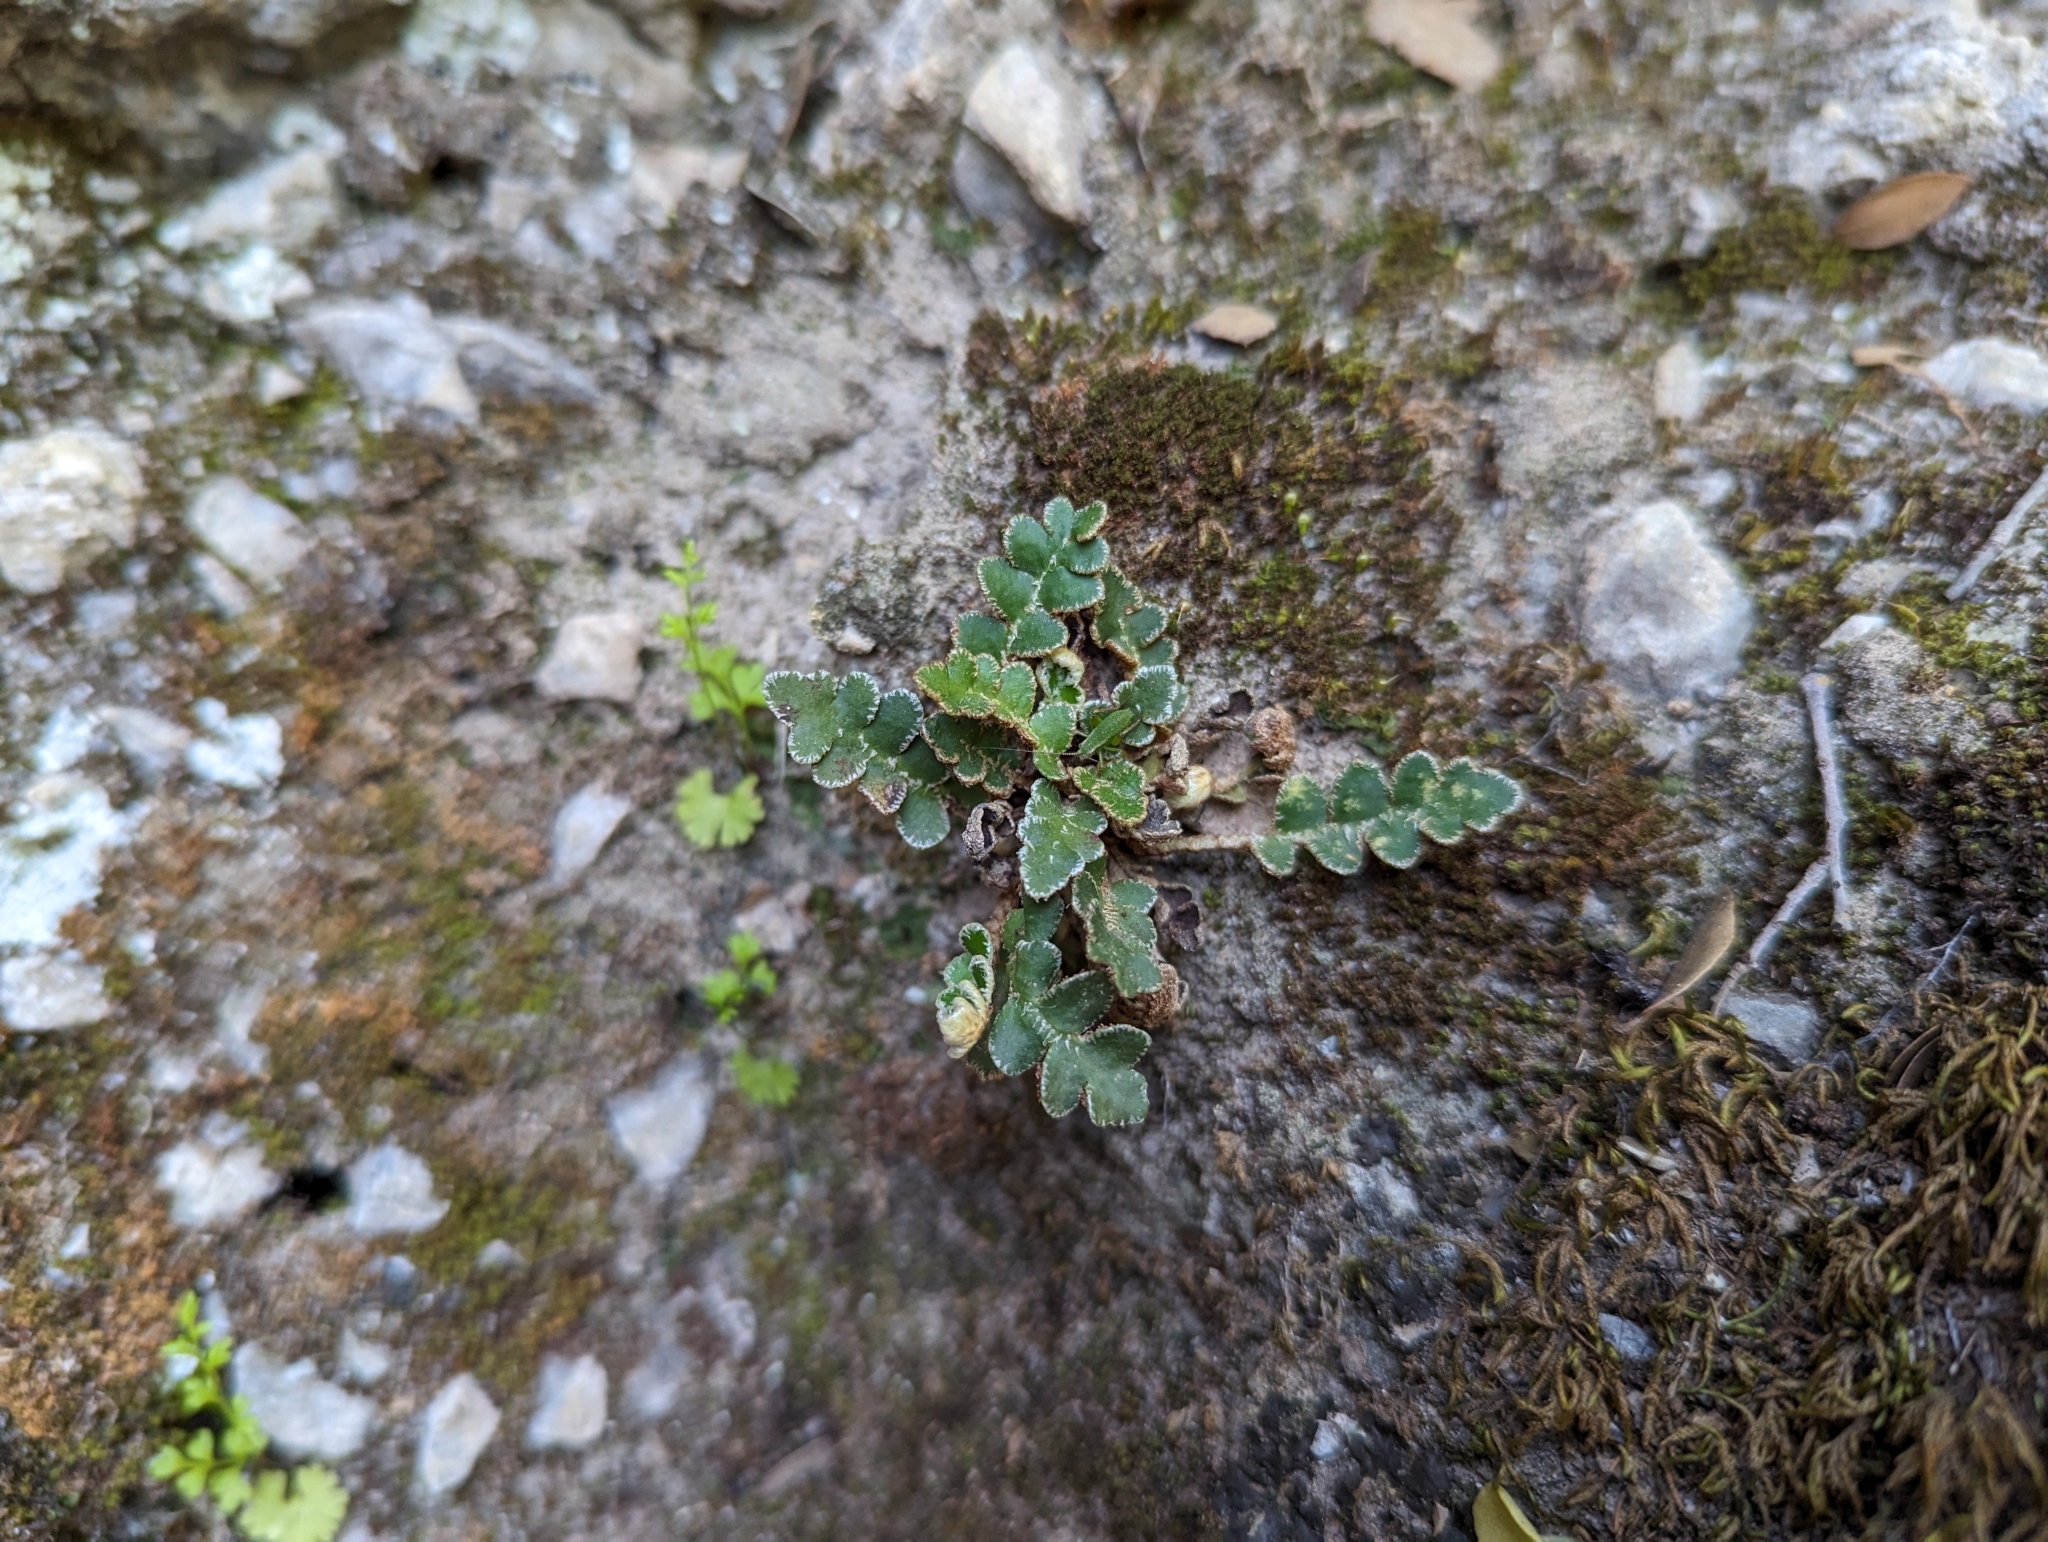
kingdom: Plantae
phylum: Tracheophyta
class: Polypodiopsida
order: Polypodiales
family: Aspleniaceae
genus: Asplenium
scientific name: Asplenium ceterach
